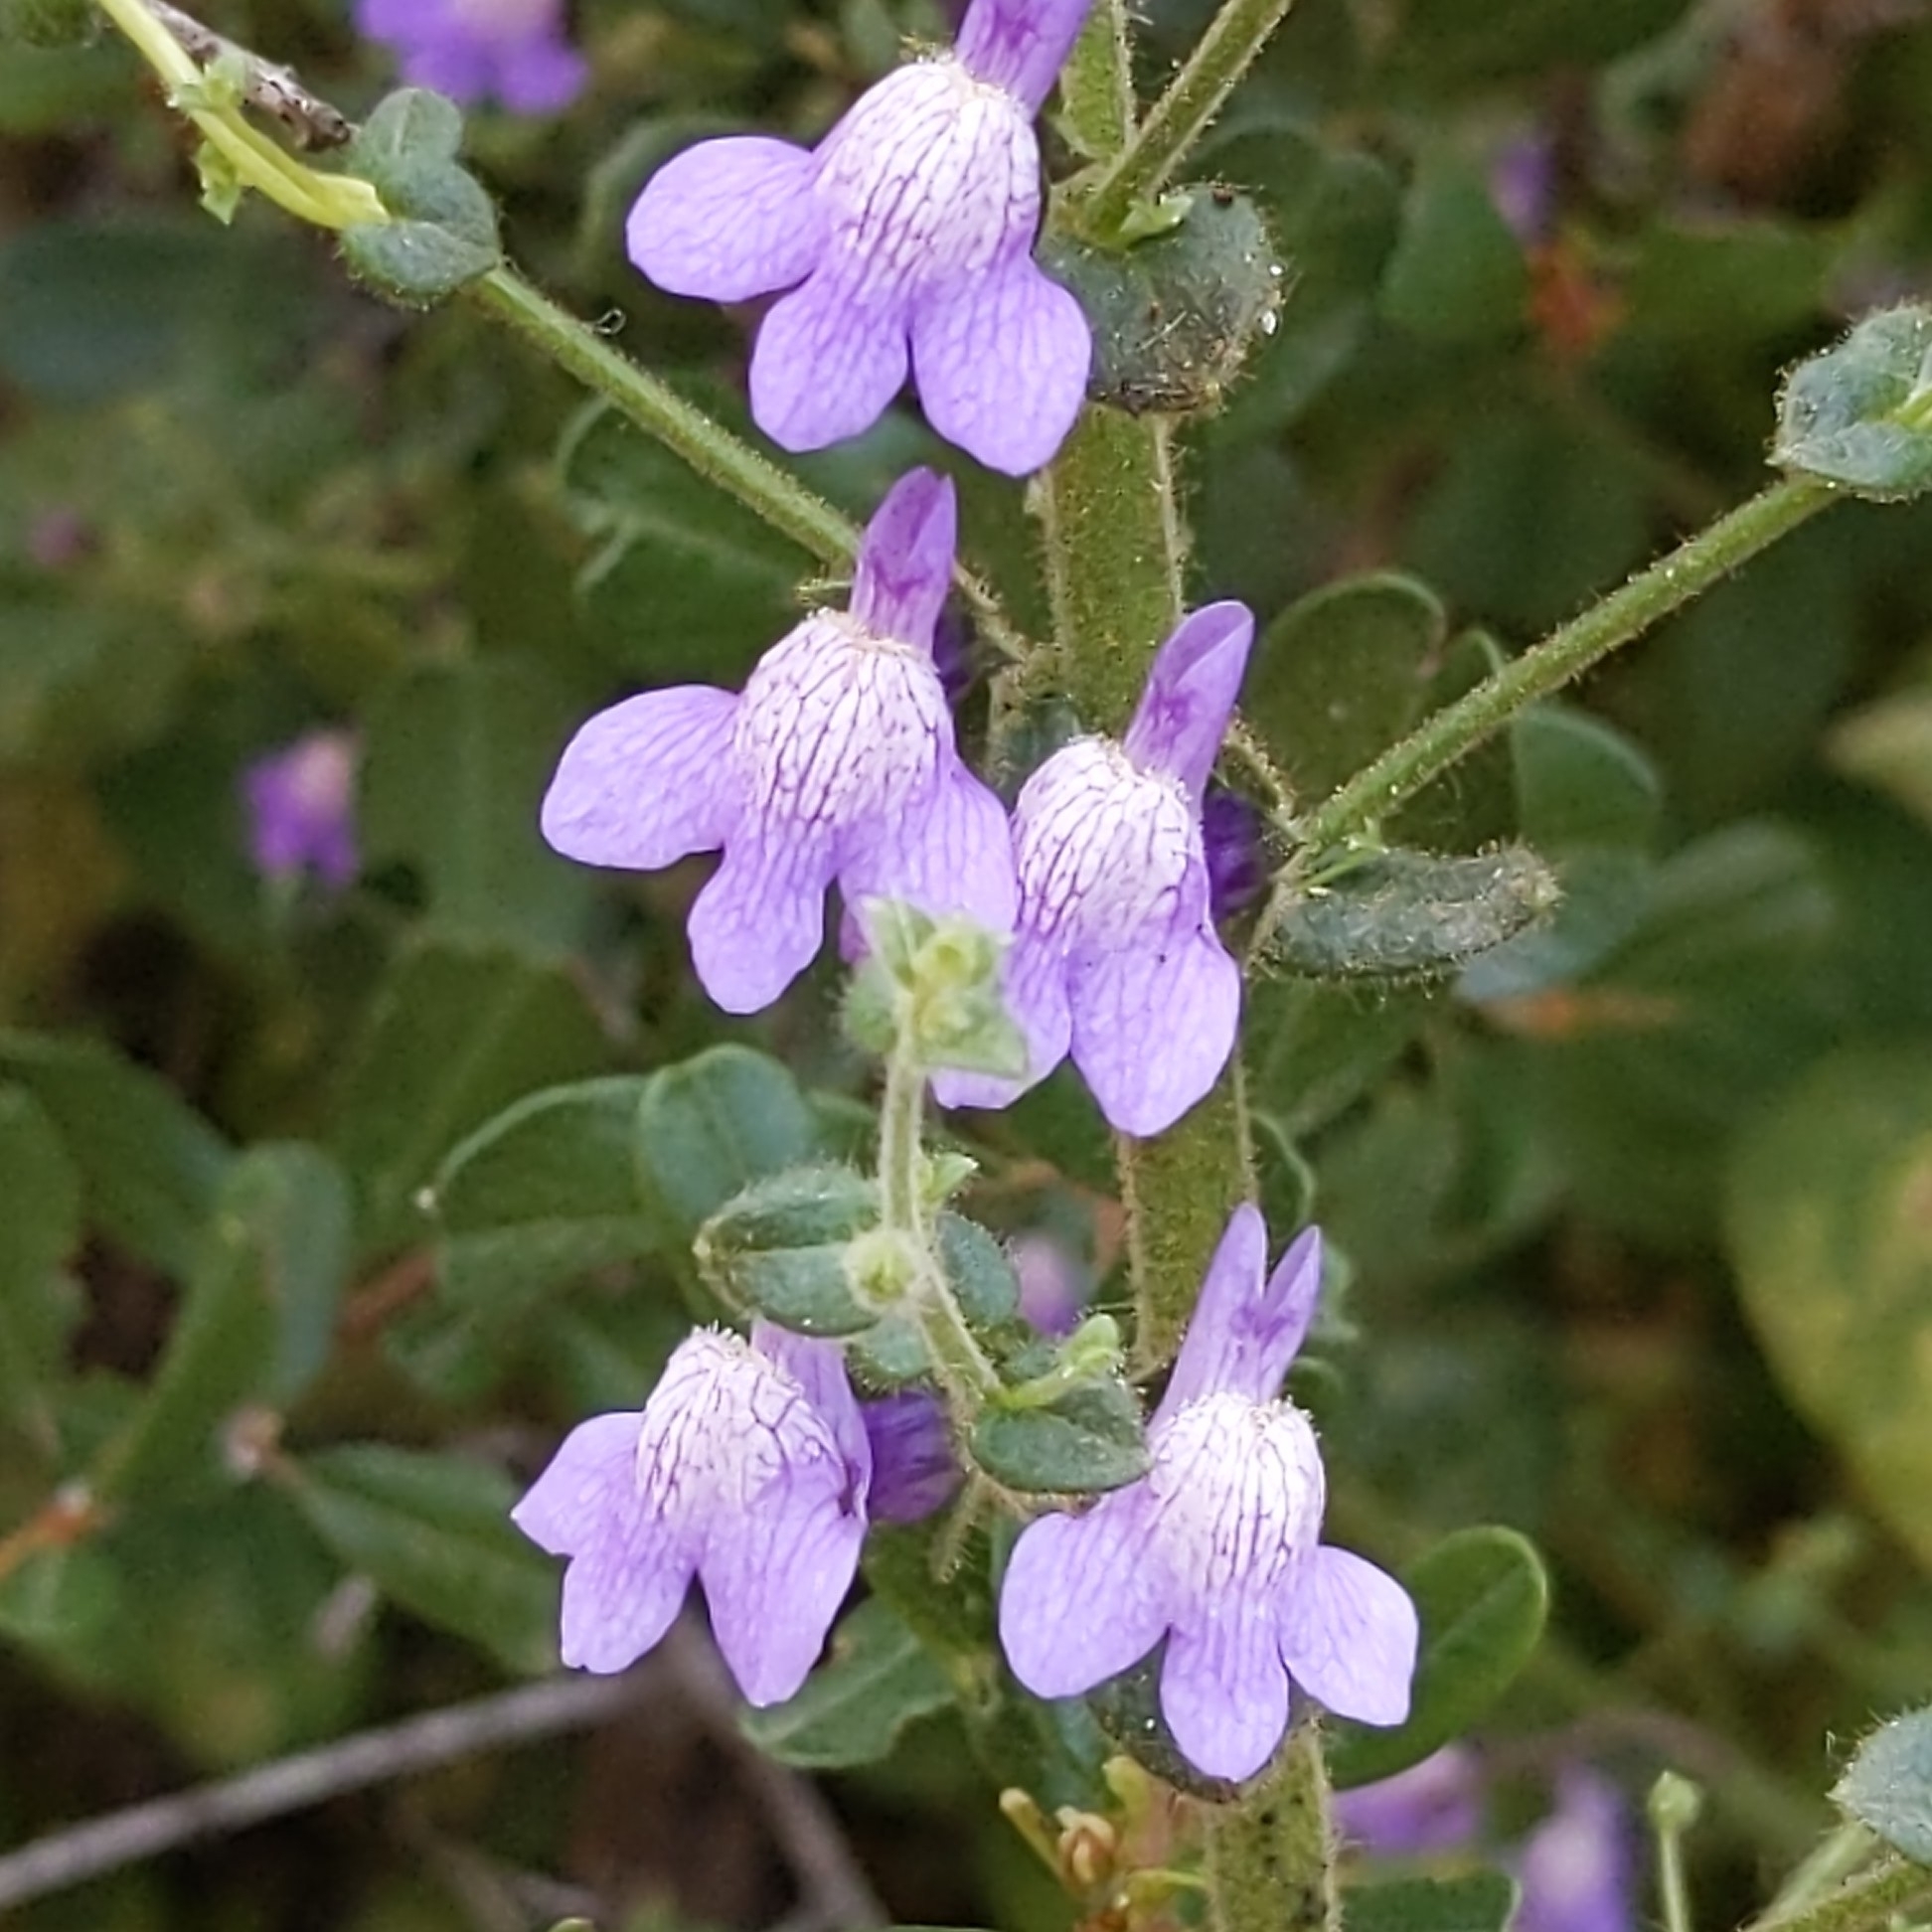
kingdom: Plantae
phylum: Tracheophyta
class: Magnoliopsida
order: Lamiales
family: Plantaginaceae
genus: Sairocarpus
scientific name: Sairocarpus nuttallianus
